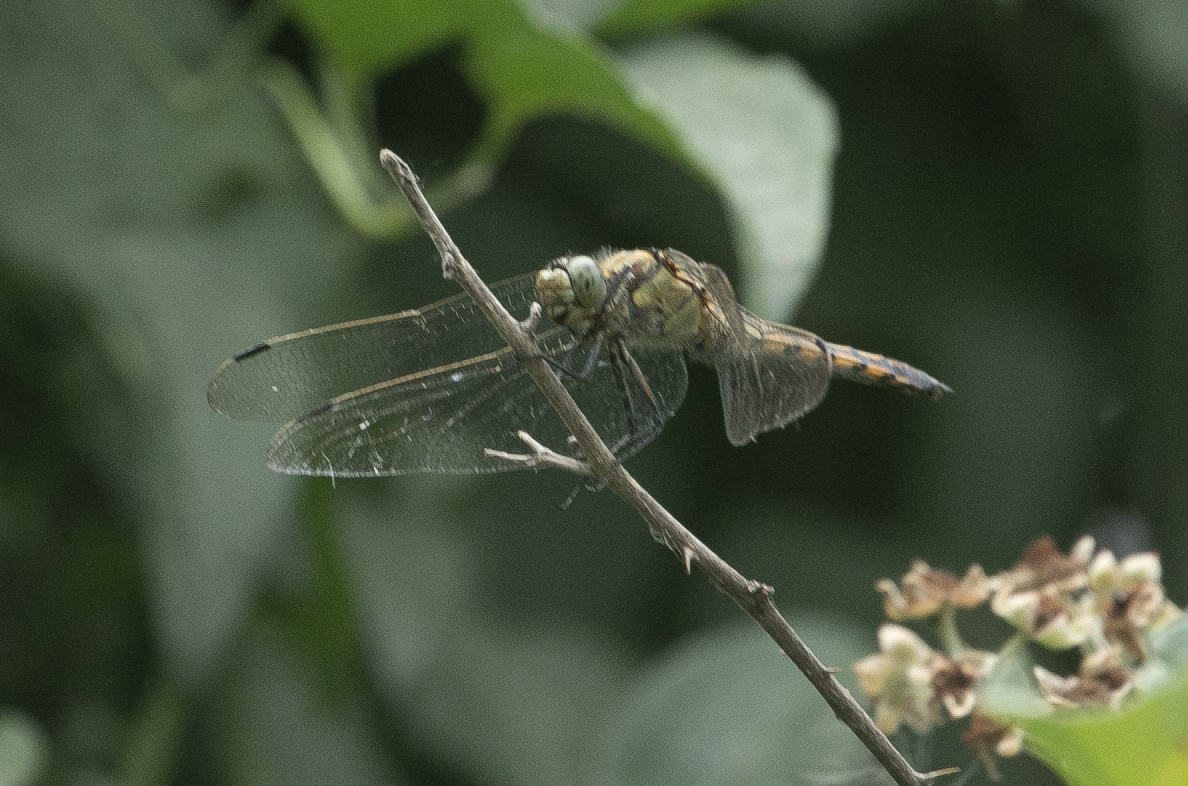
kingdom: Animalia
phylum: Arthropoda
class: Insecta
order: Odonata
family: Libellulidae
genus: Orthetrum
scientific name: Orthetrum cancellatum
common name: Black-tailed skimmer
